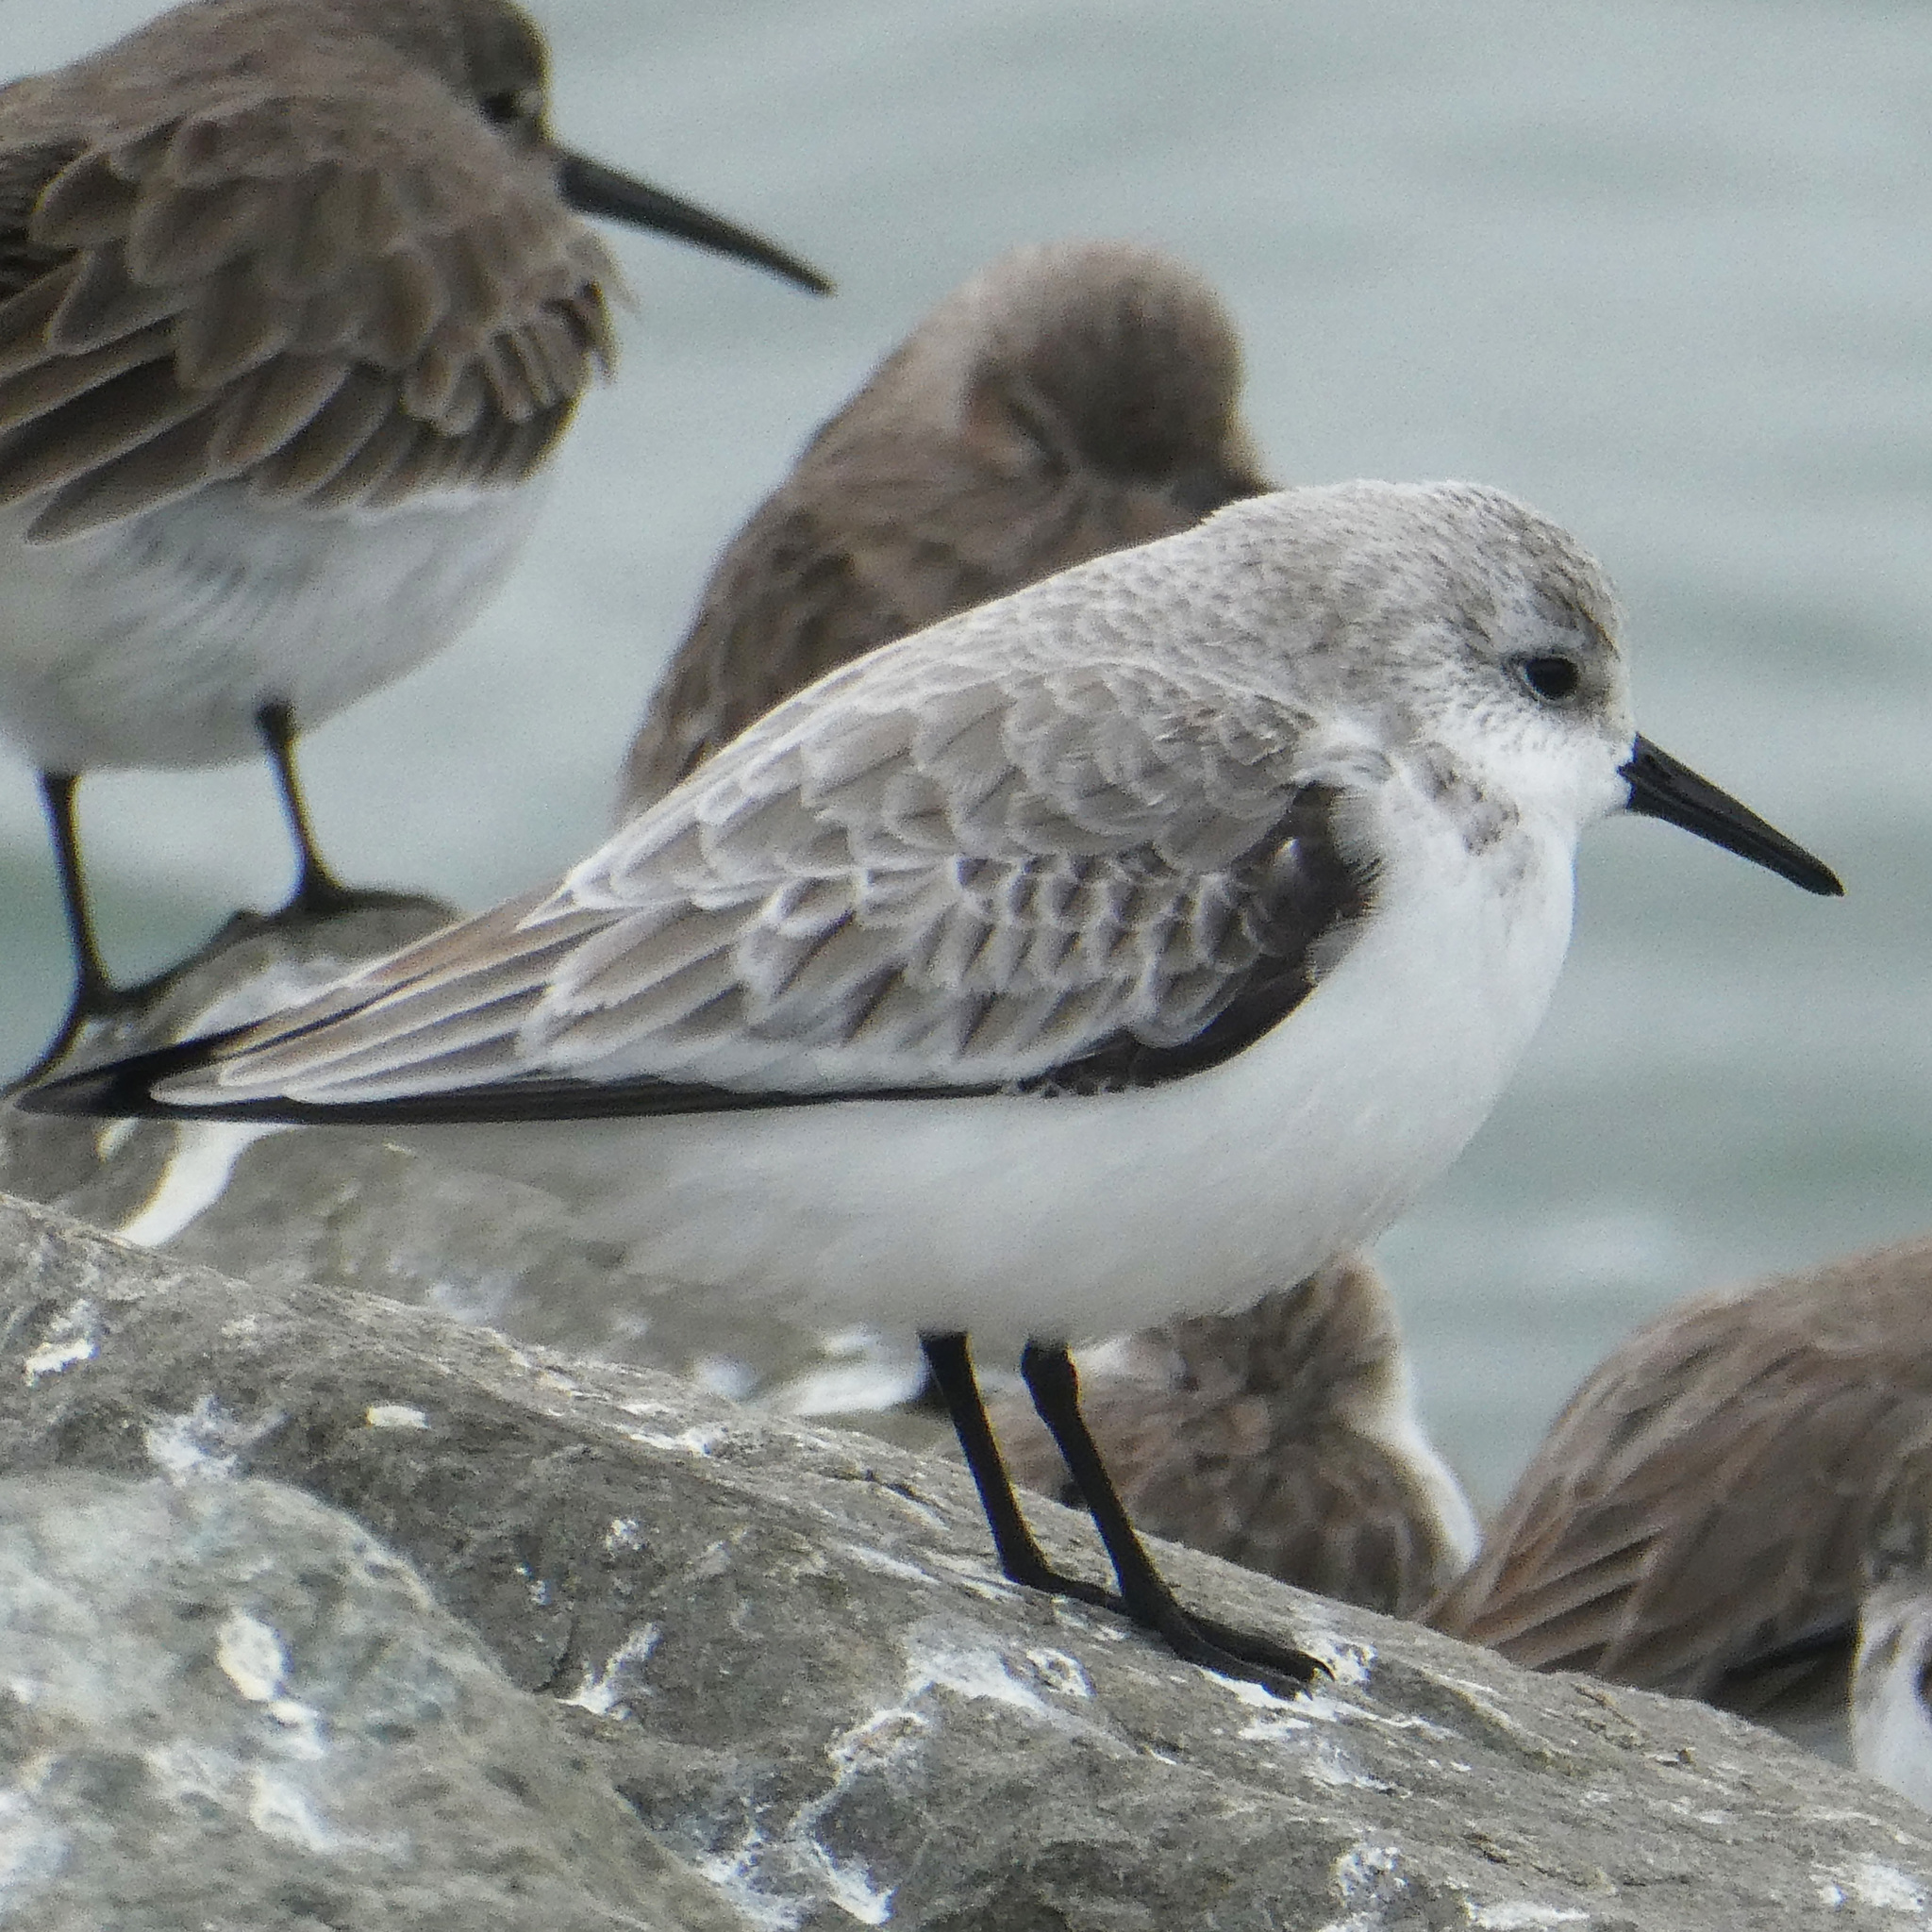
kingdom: Animalia
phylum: Chordata
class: Aves
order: Charadriiformes
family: Scolopacidae
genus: Calidris
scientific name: Calidris alba
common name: Sanderling
